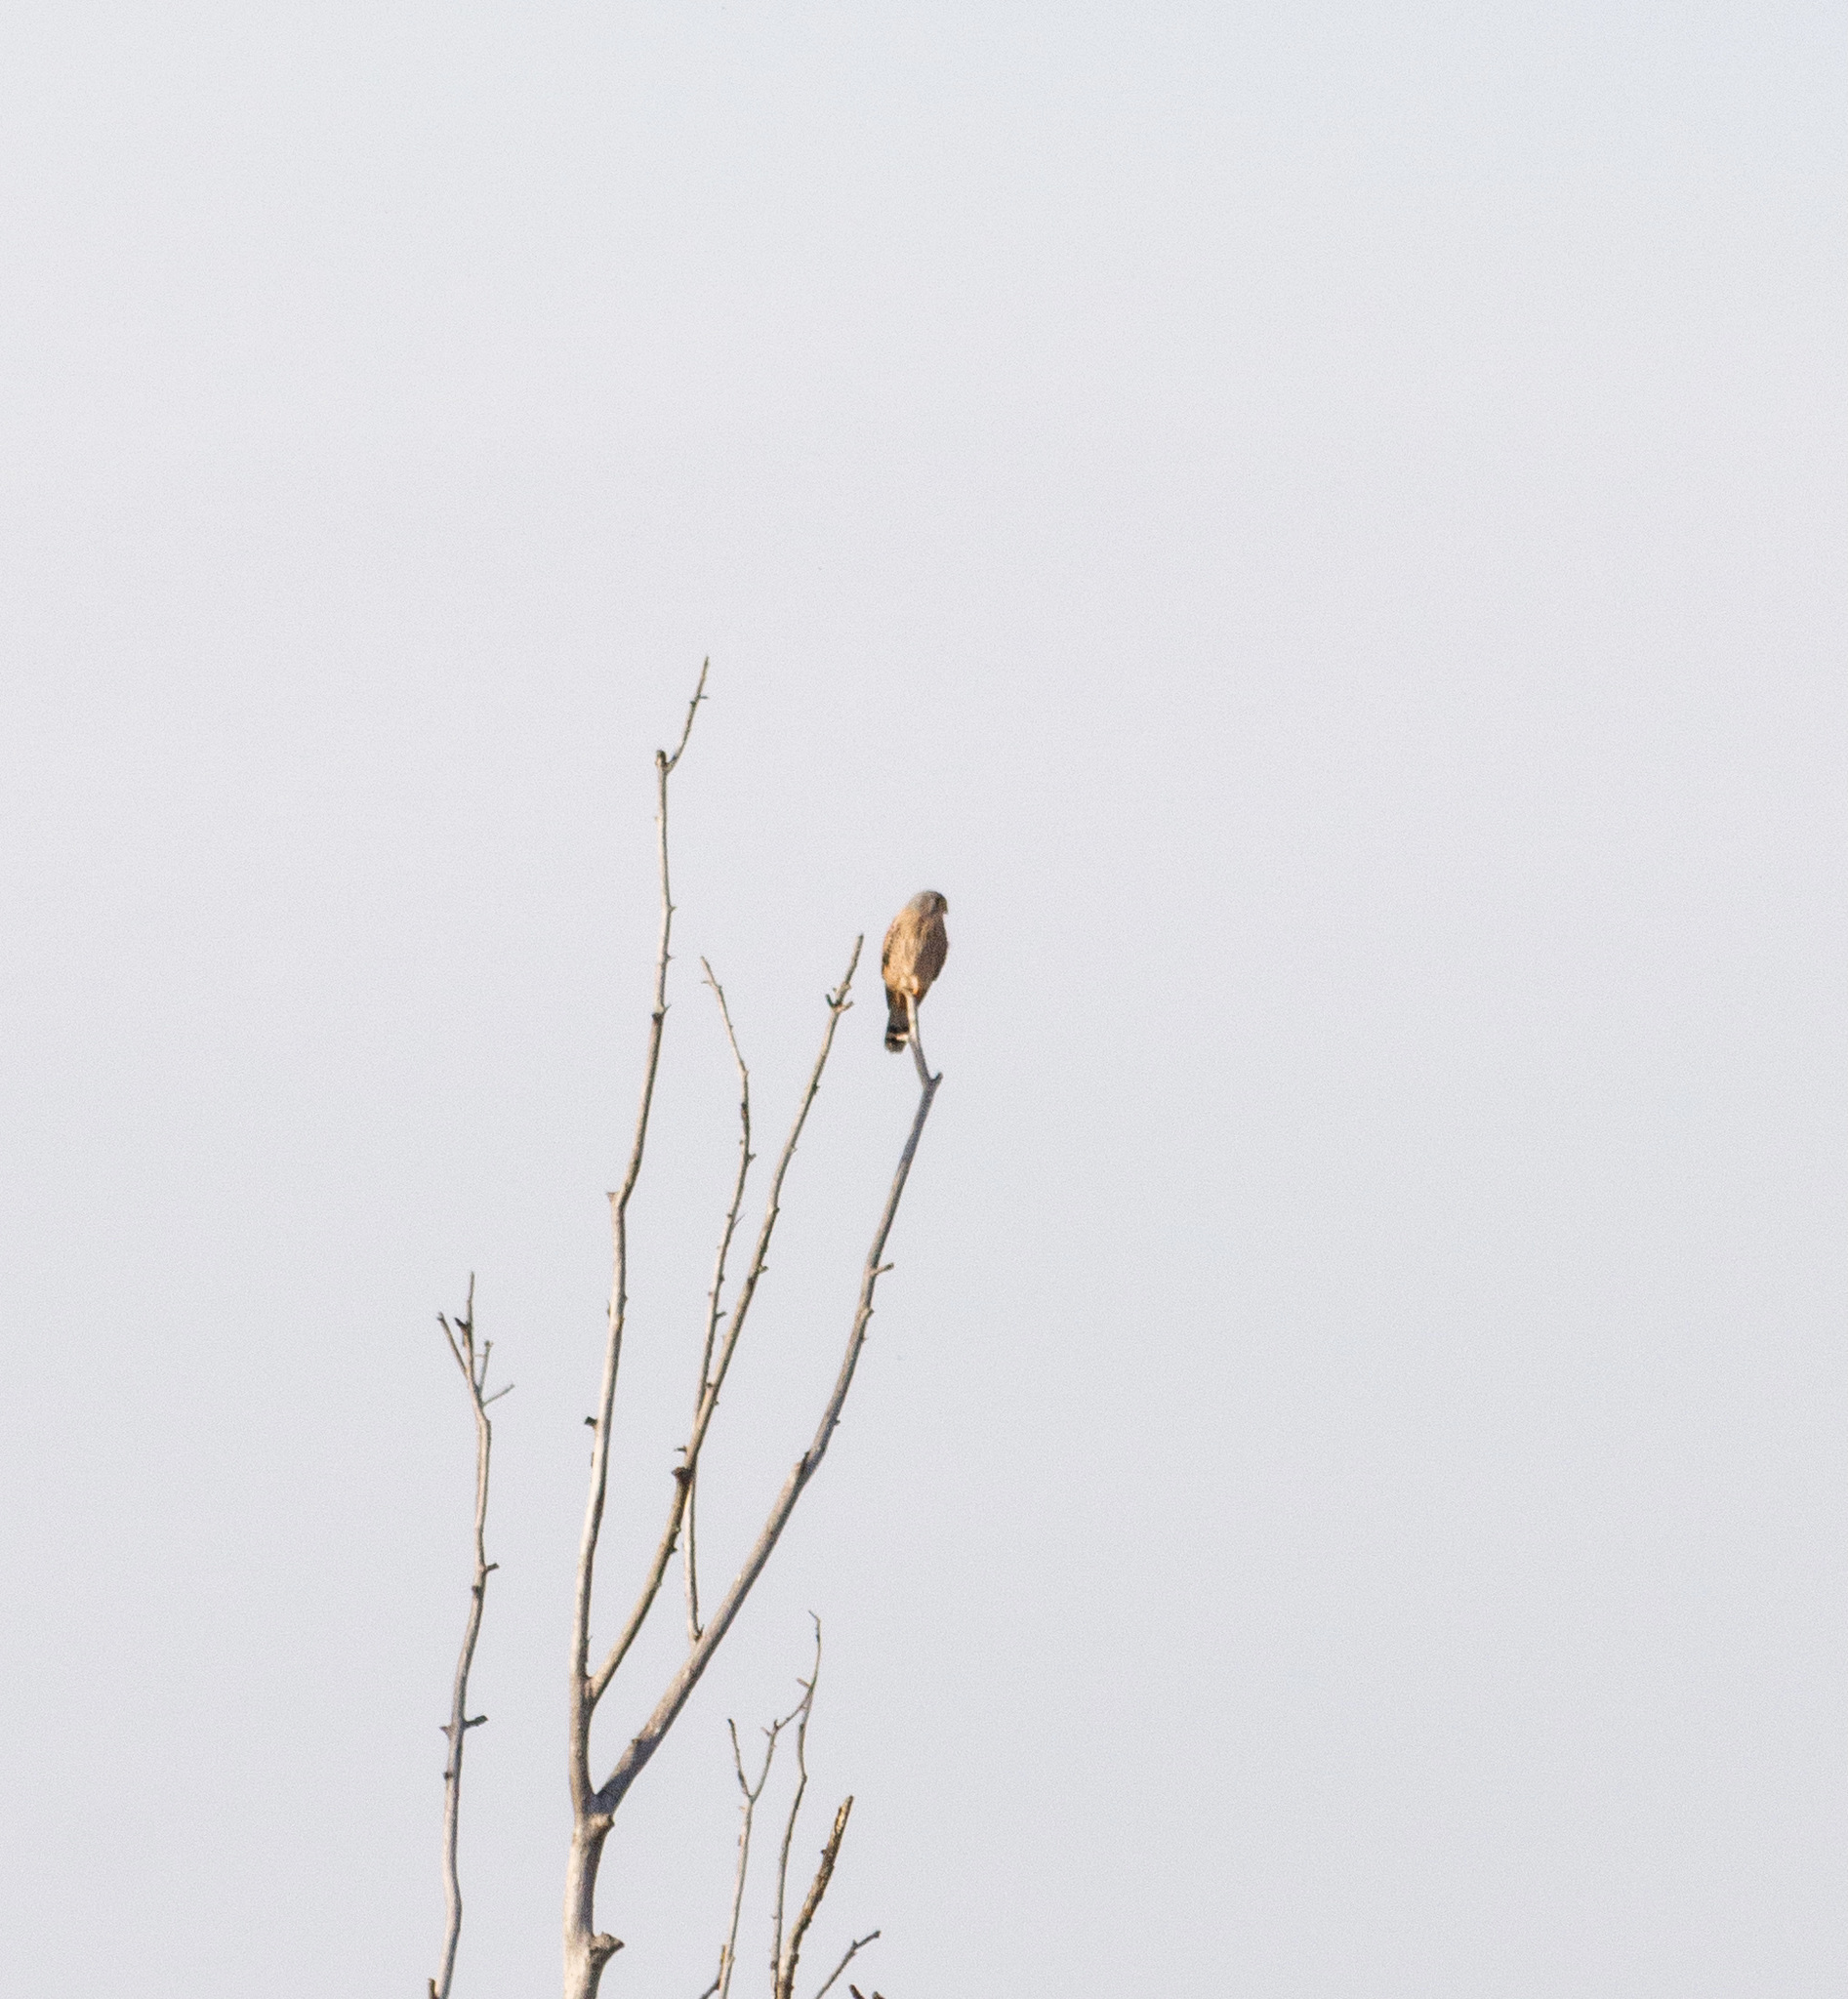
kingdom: Animalia
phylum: Chordata
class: Aves
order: Falconiformes
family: Falconidae
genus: Falco
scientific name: Falco tinnunculus
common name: Common kestrel
